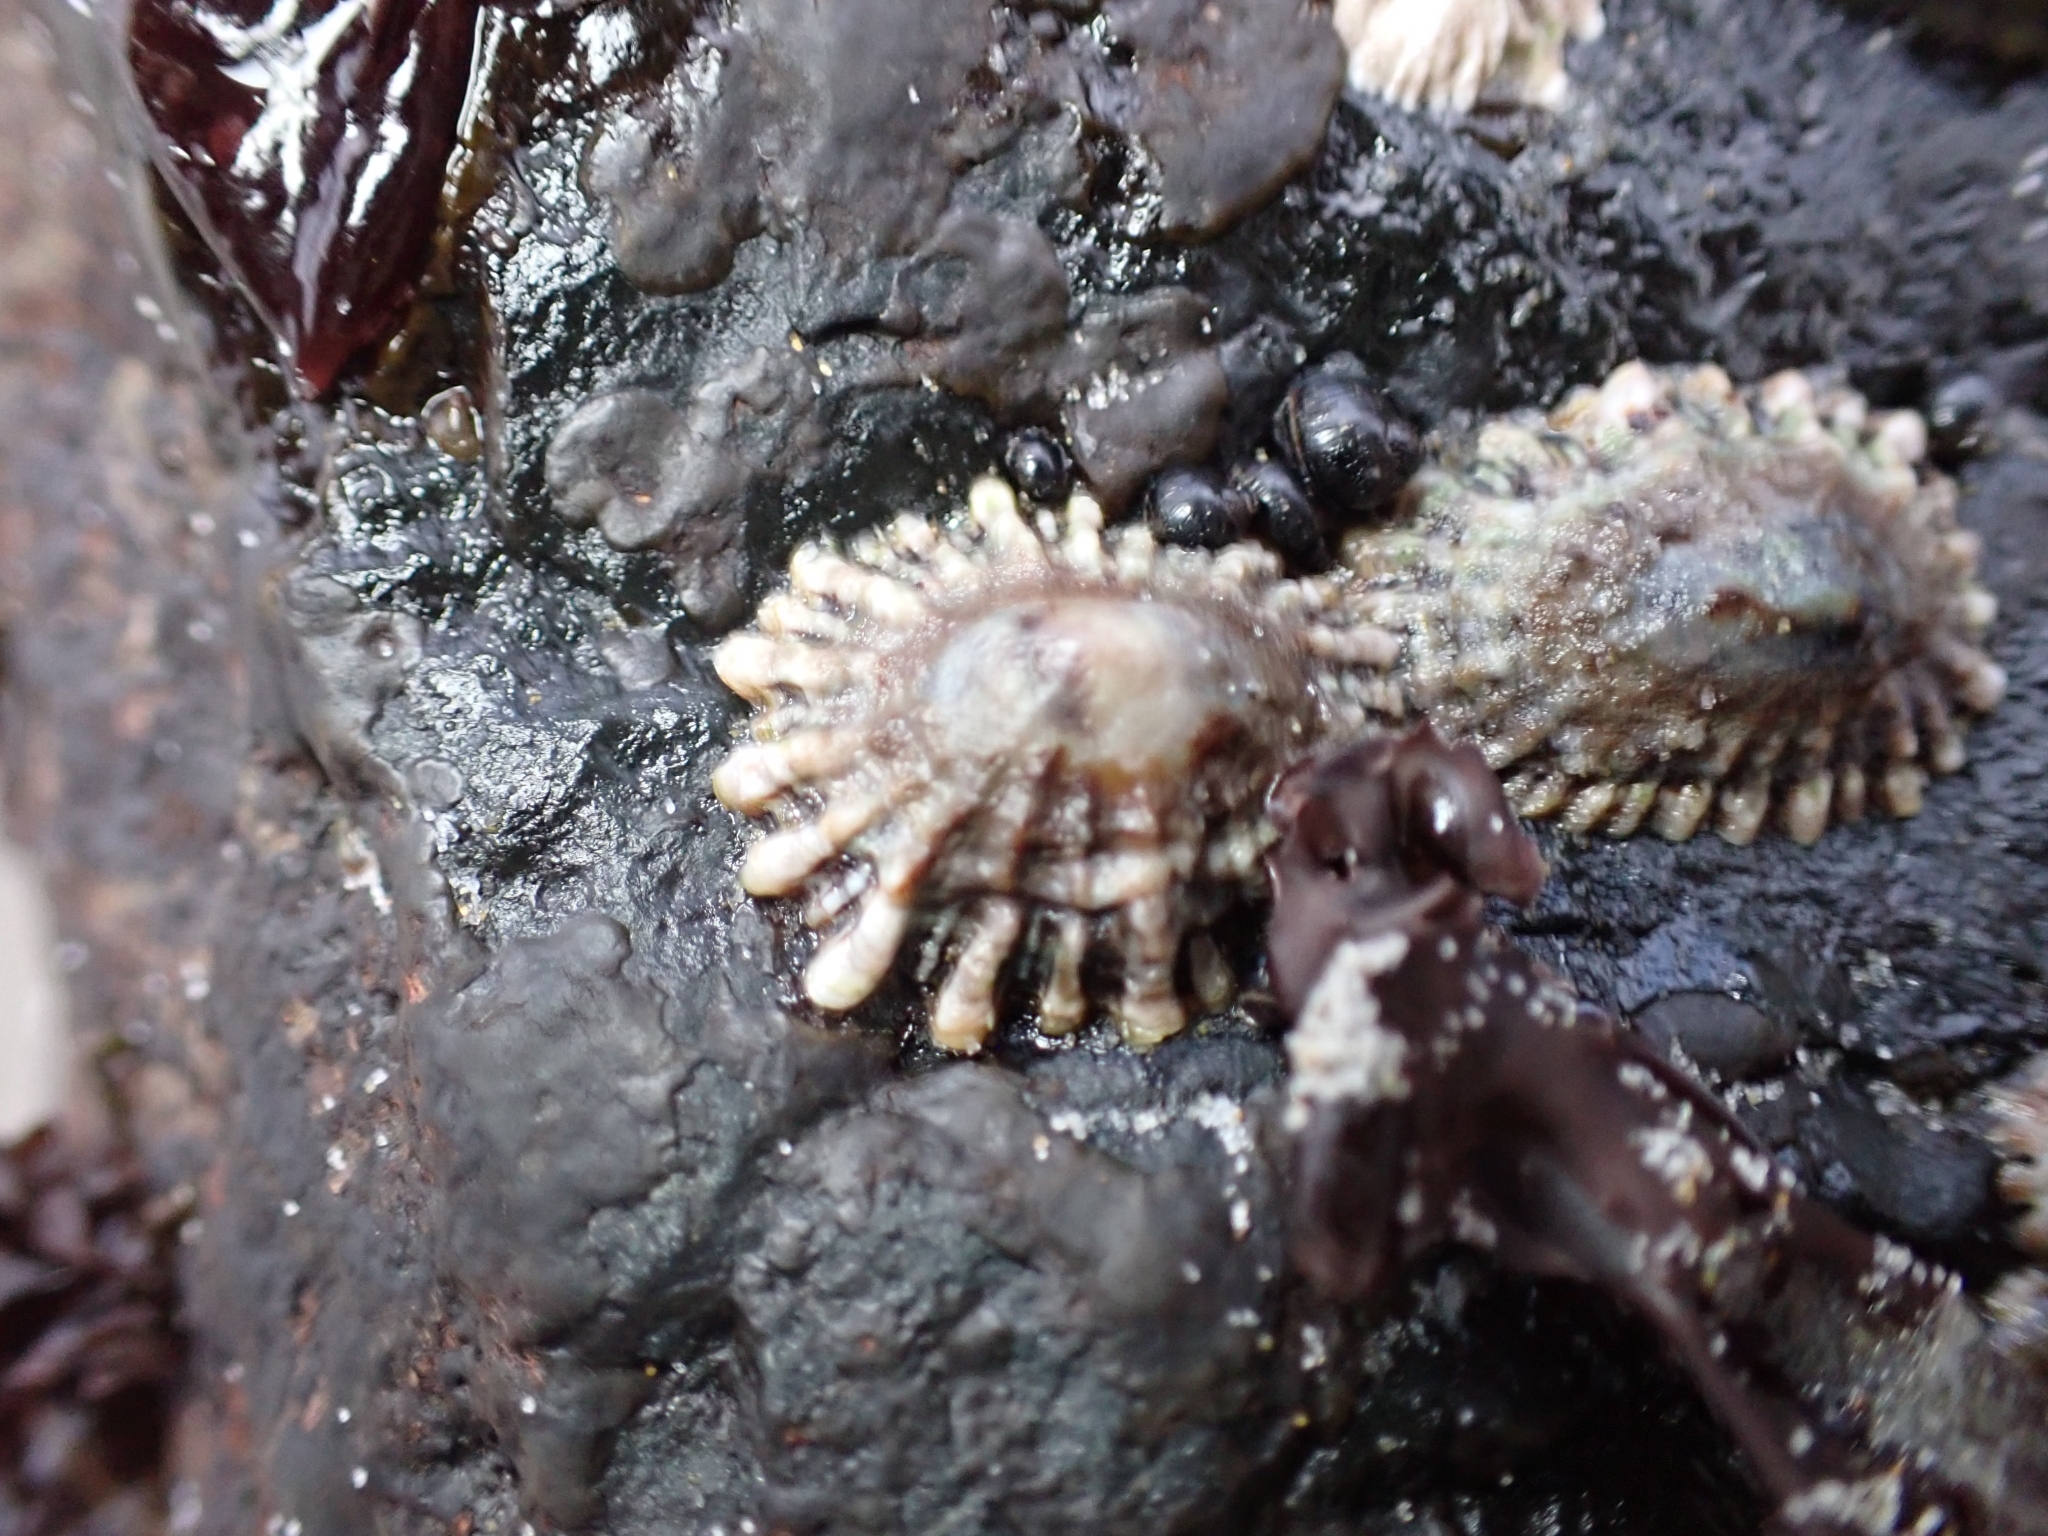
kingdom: Animalia
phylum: Mollusca
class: Gastropoda
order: Siphonariida
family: Siphonariidae
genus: Siphonaria
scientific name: Siphonaria australis
